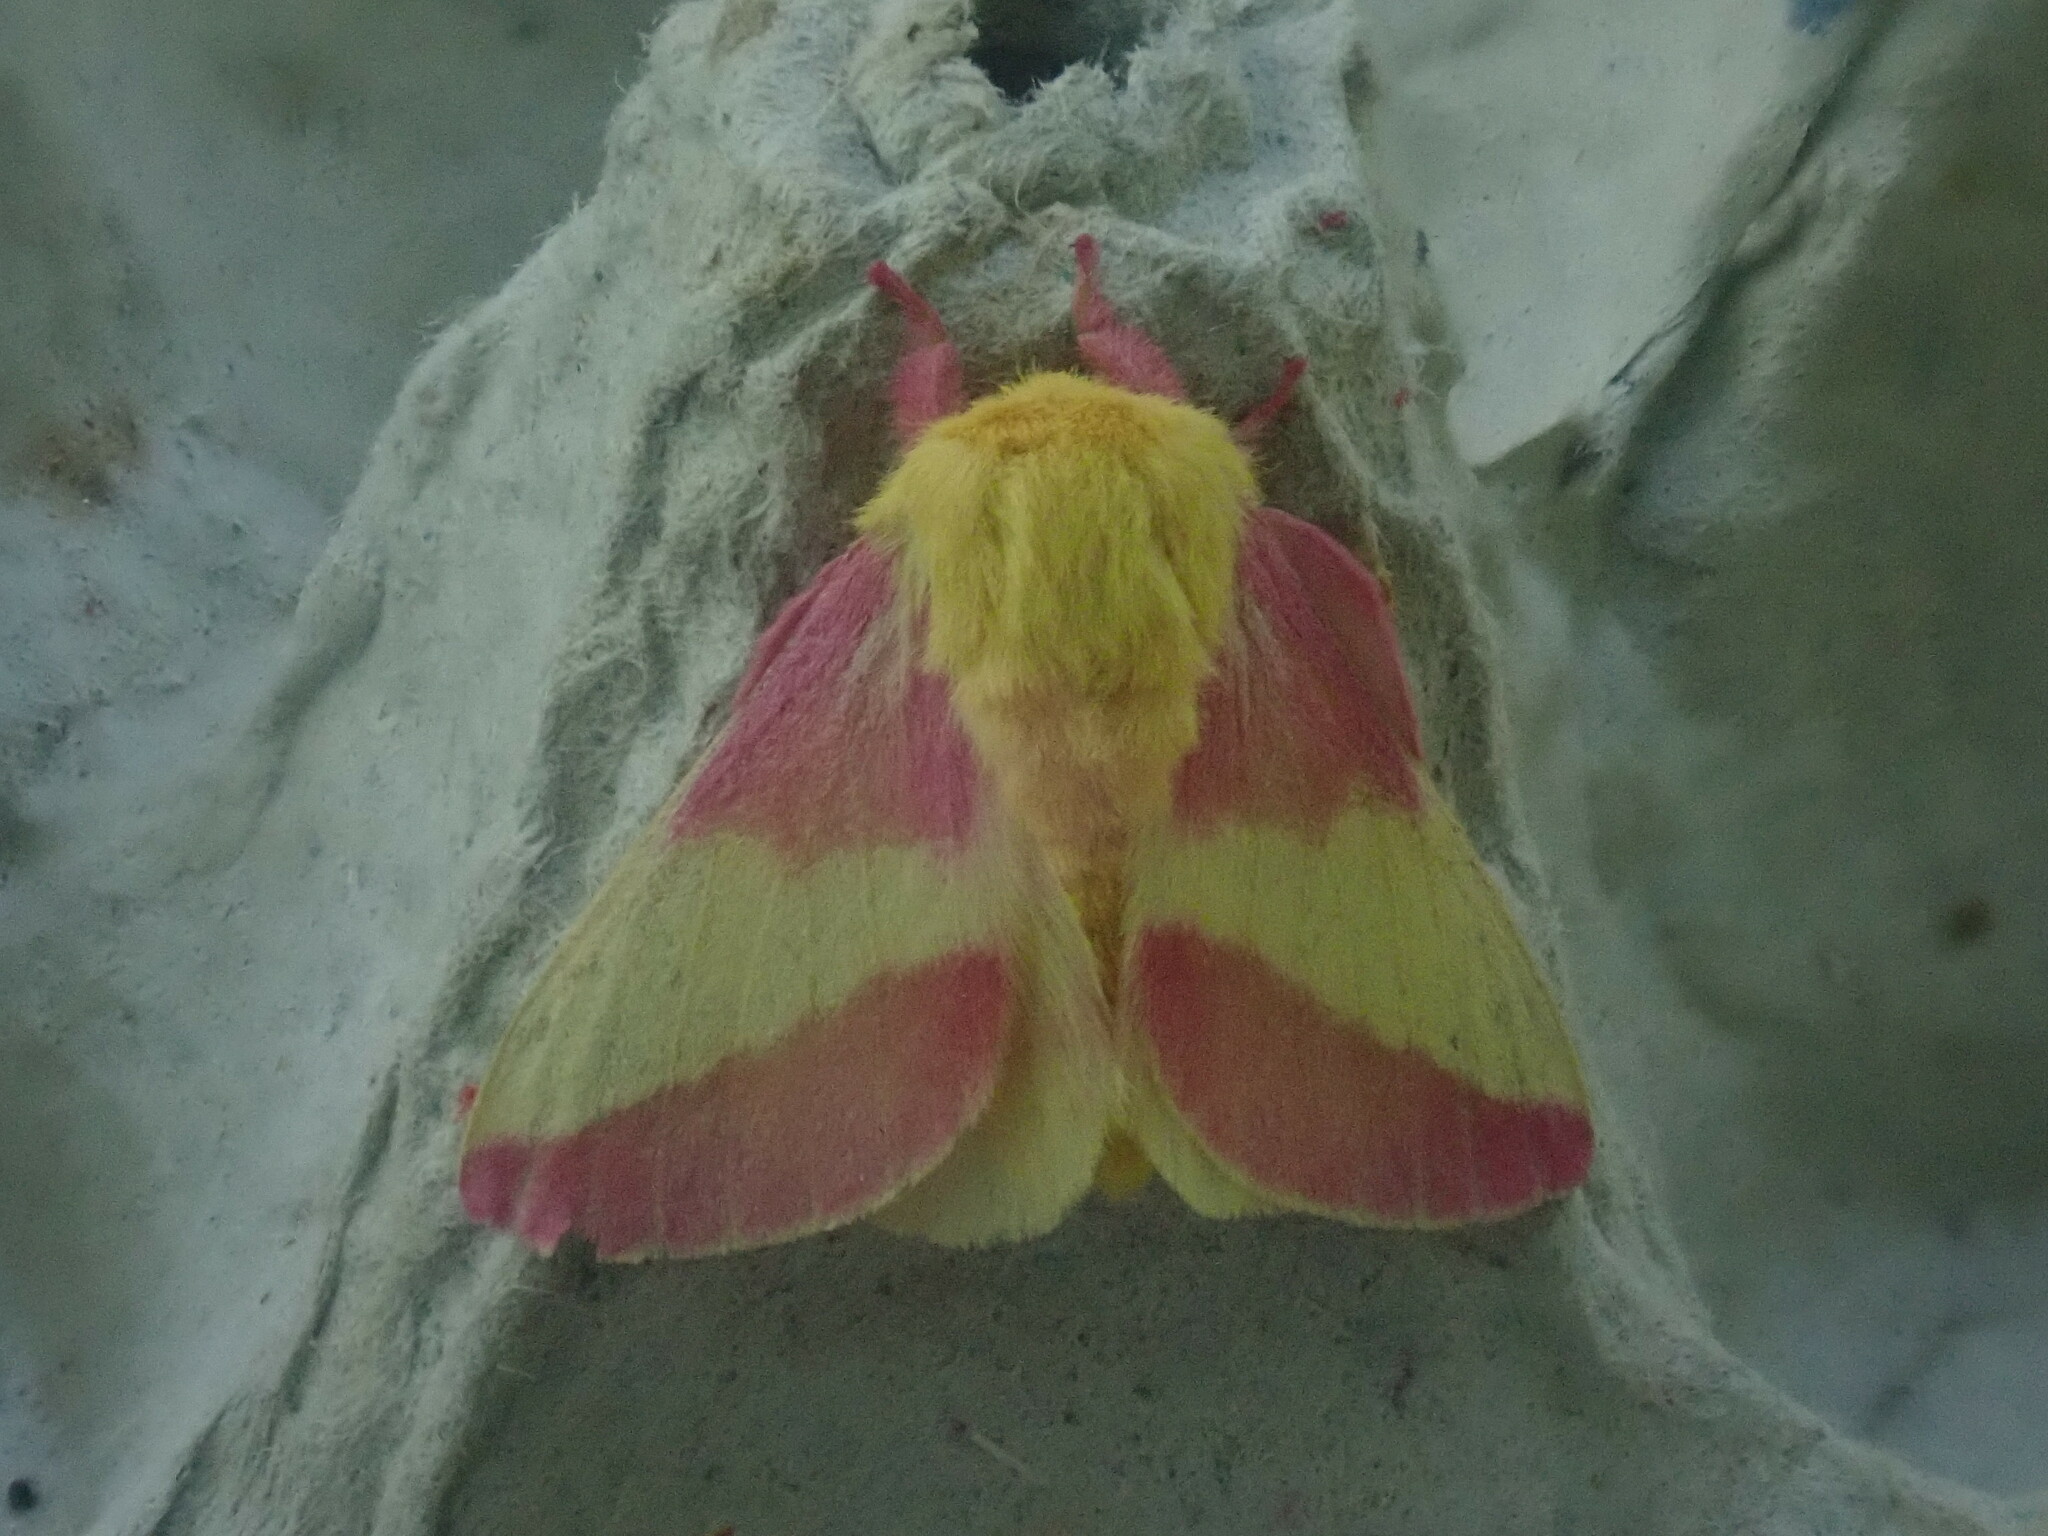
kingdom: Animalia
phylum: Arthropoda
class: Insecta
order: Lepidoptera
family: Saturniidae
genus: Dryocampa
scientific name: Dryocampa rubicunda
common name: Rosy maple moth
